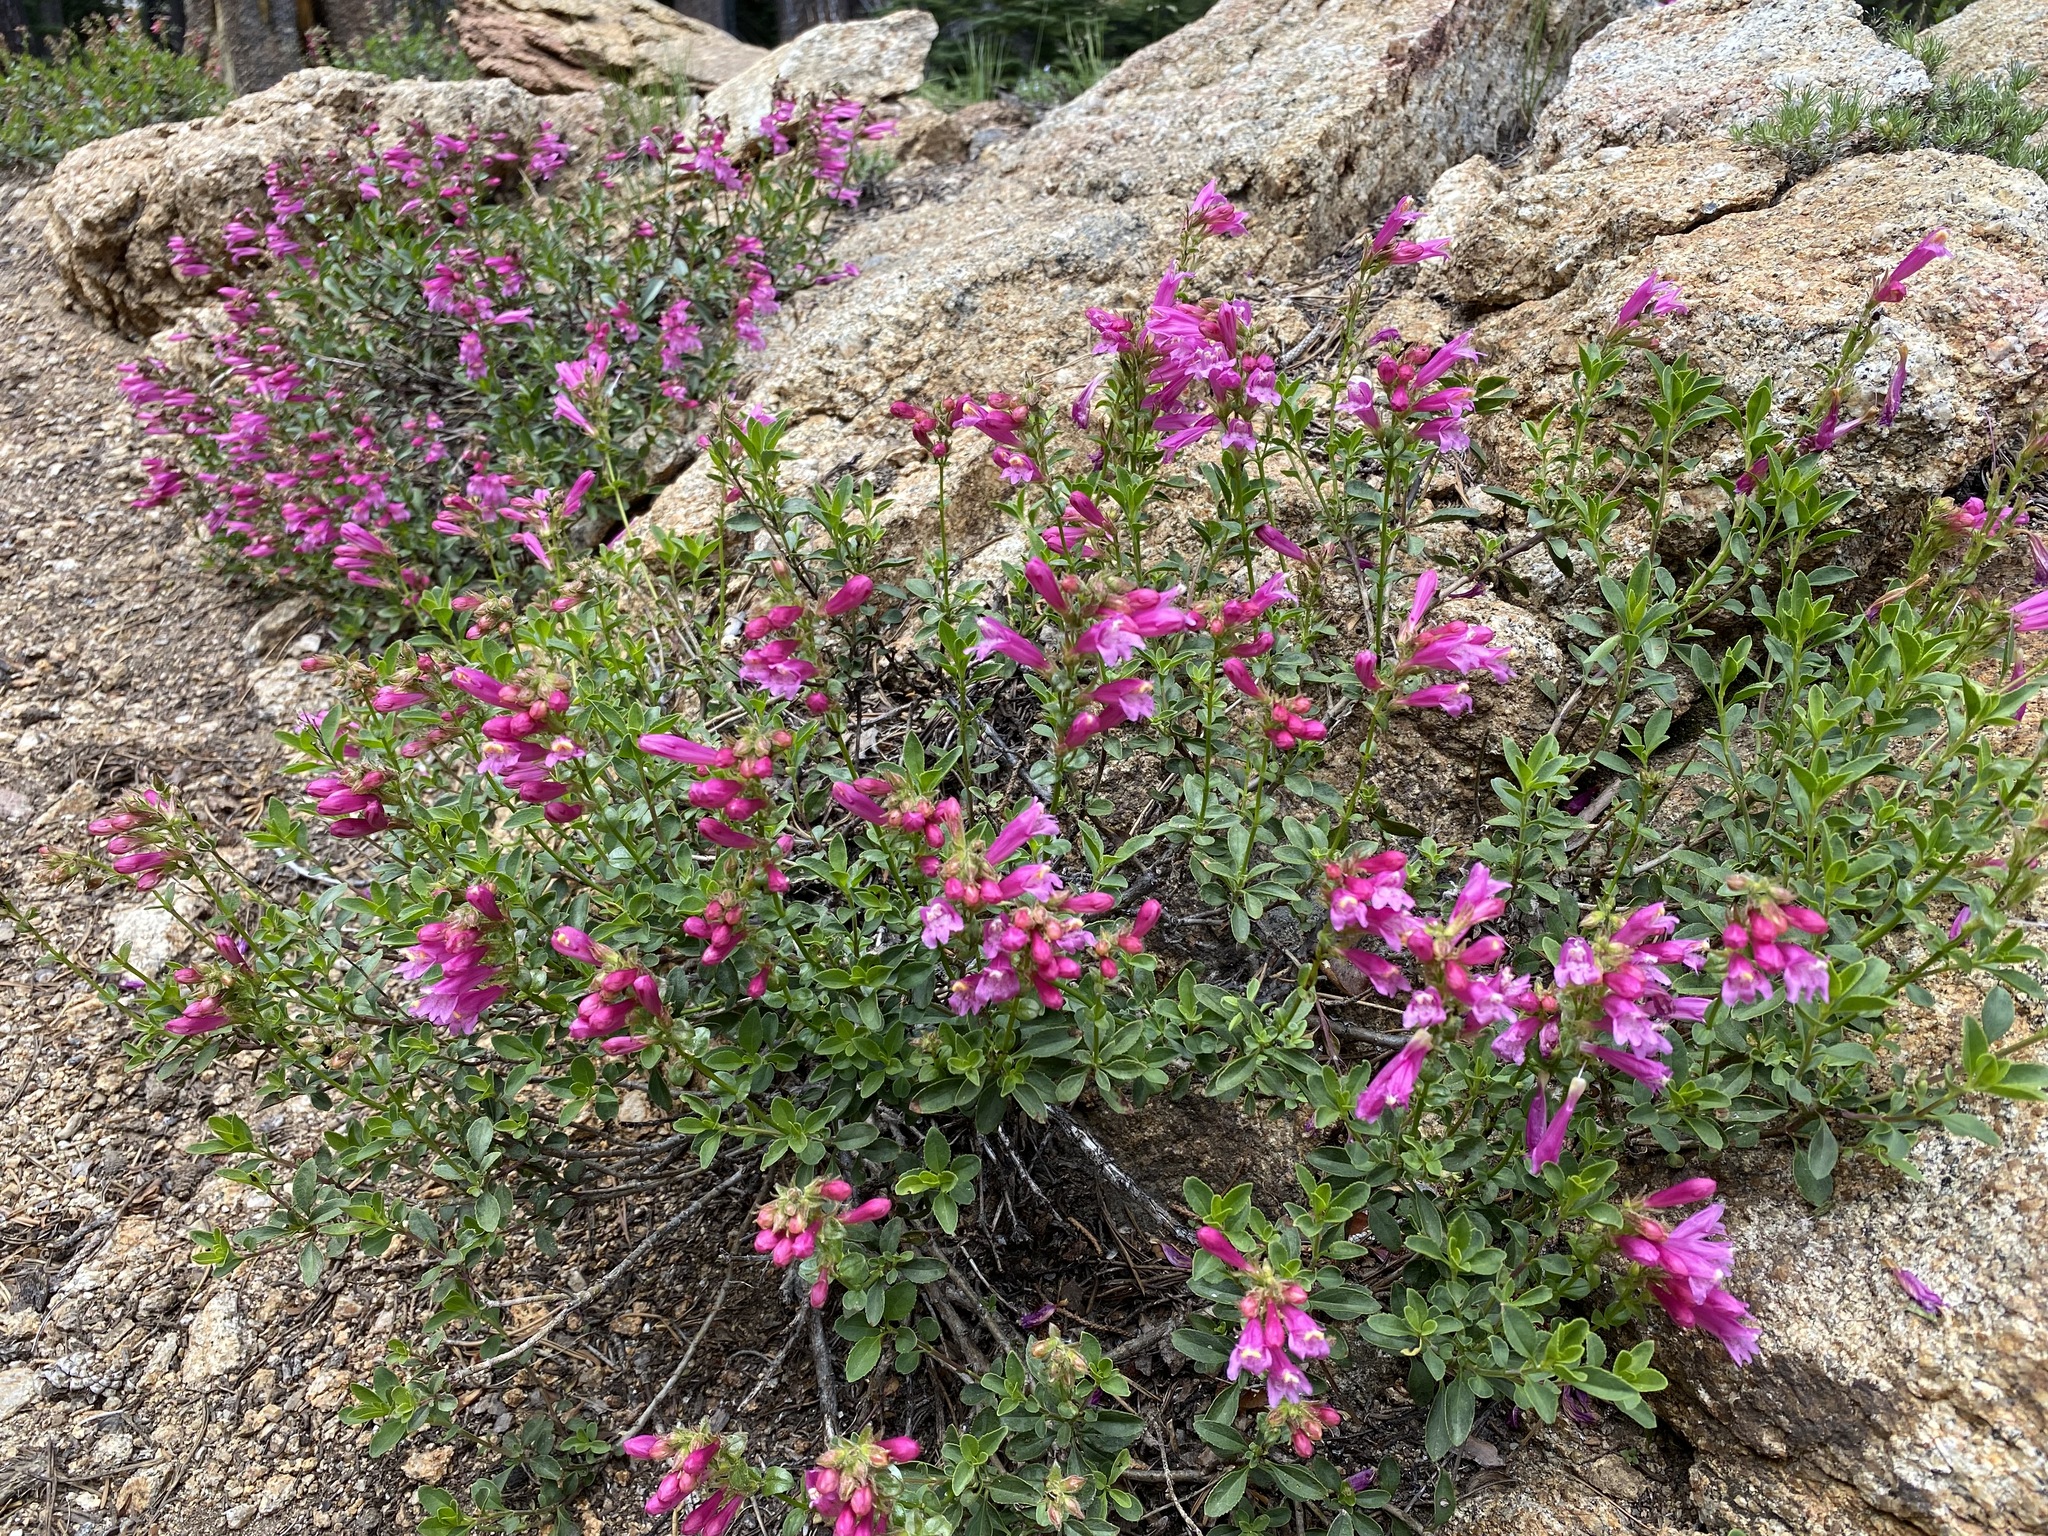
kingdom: Plantae
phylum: Tracheophyta
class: Magnoliopsida
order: Lamiales
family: Plantaginaceae
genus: Penstemon
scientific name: Penstemon newberryi
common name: Mountain-pride
